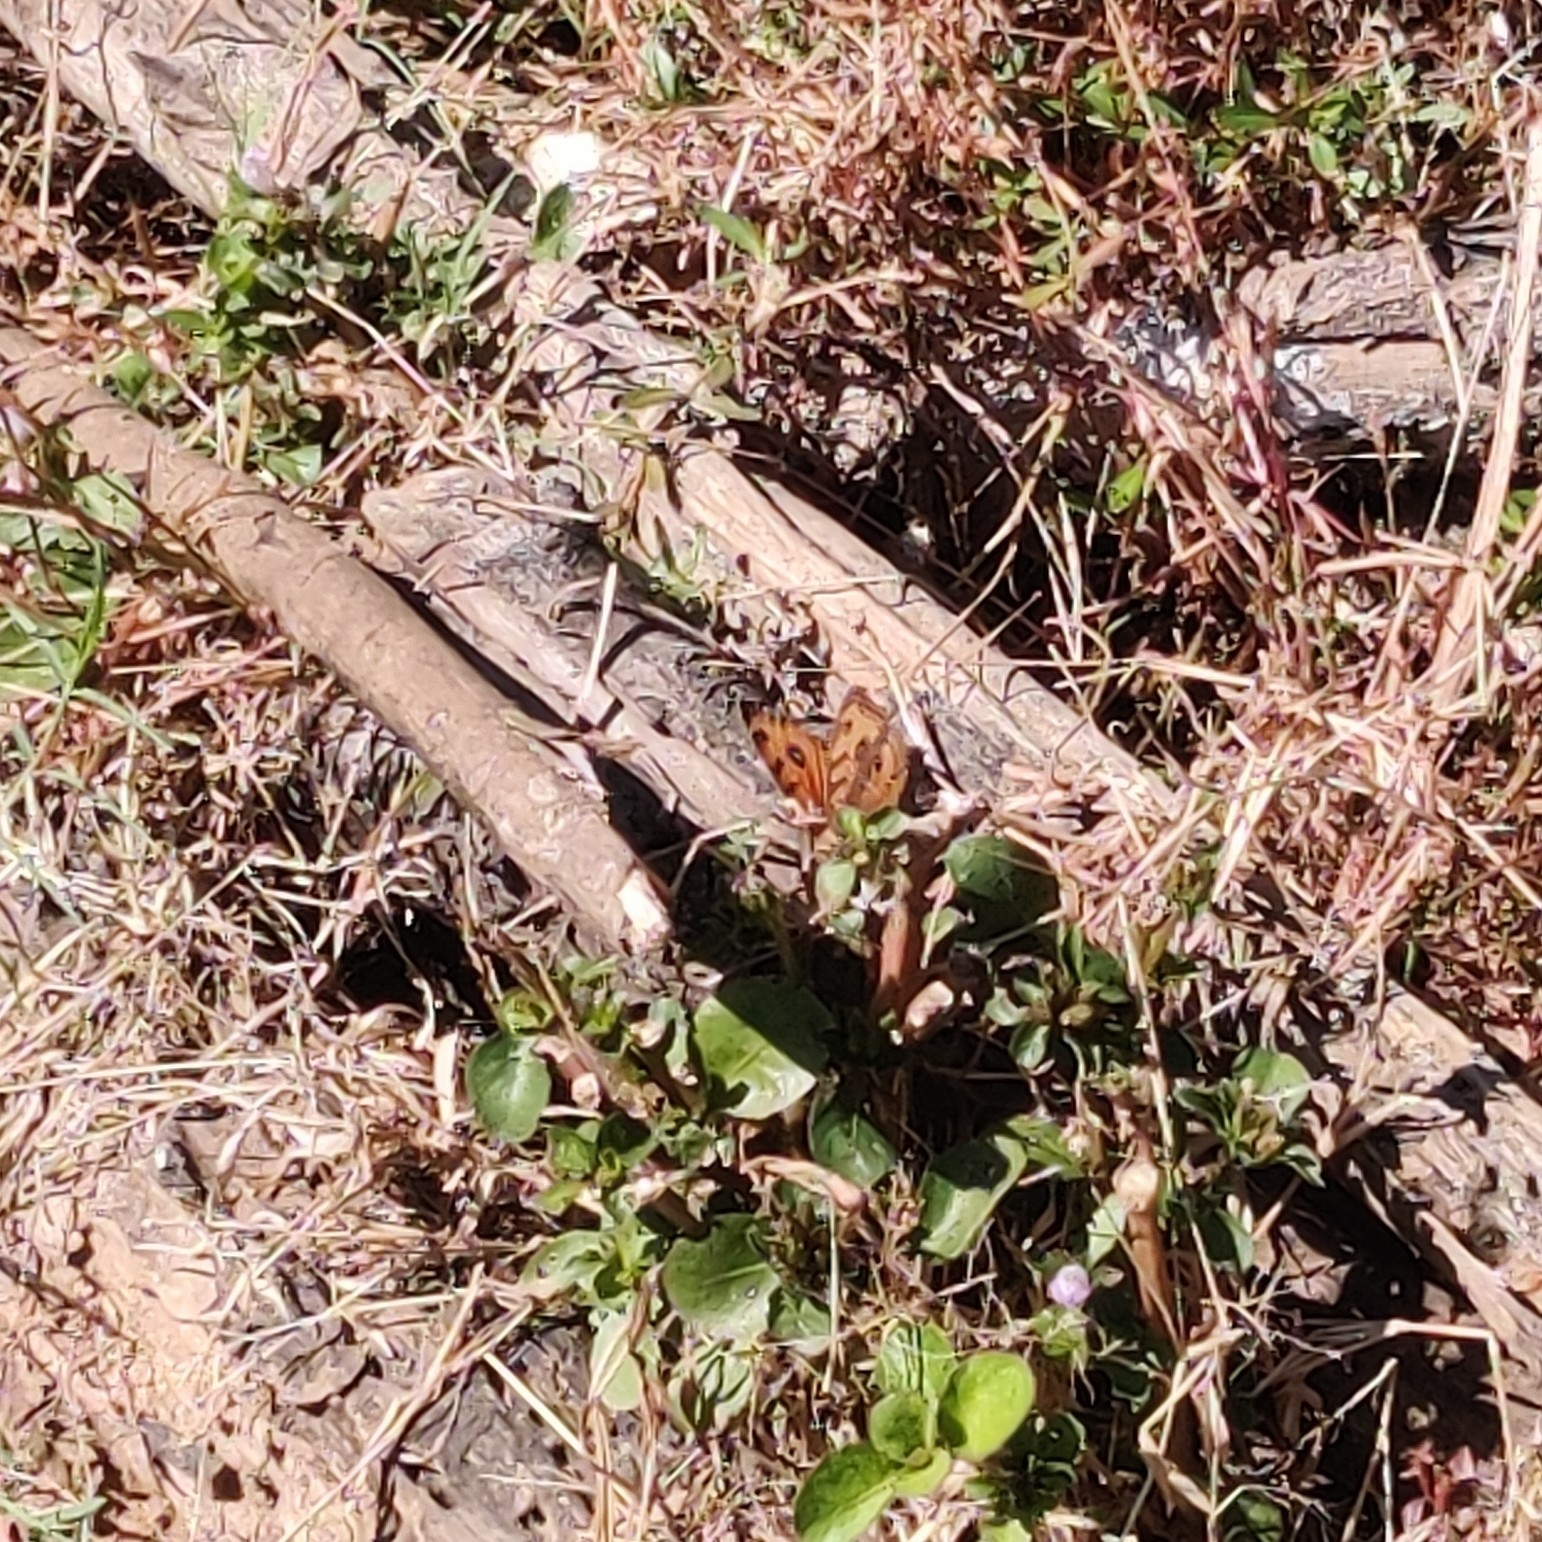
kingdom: Animalia
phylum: Arthropoda
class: Insecta
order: Lepidoptera
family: Nymphalidae
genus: Junonia
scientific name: Junonia almana
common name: Peacock pansy
